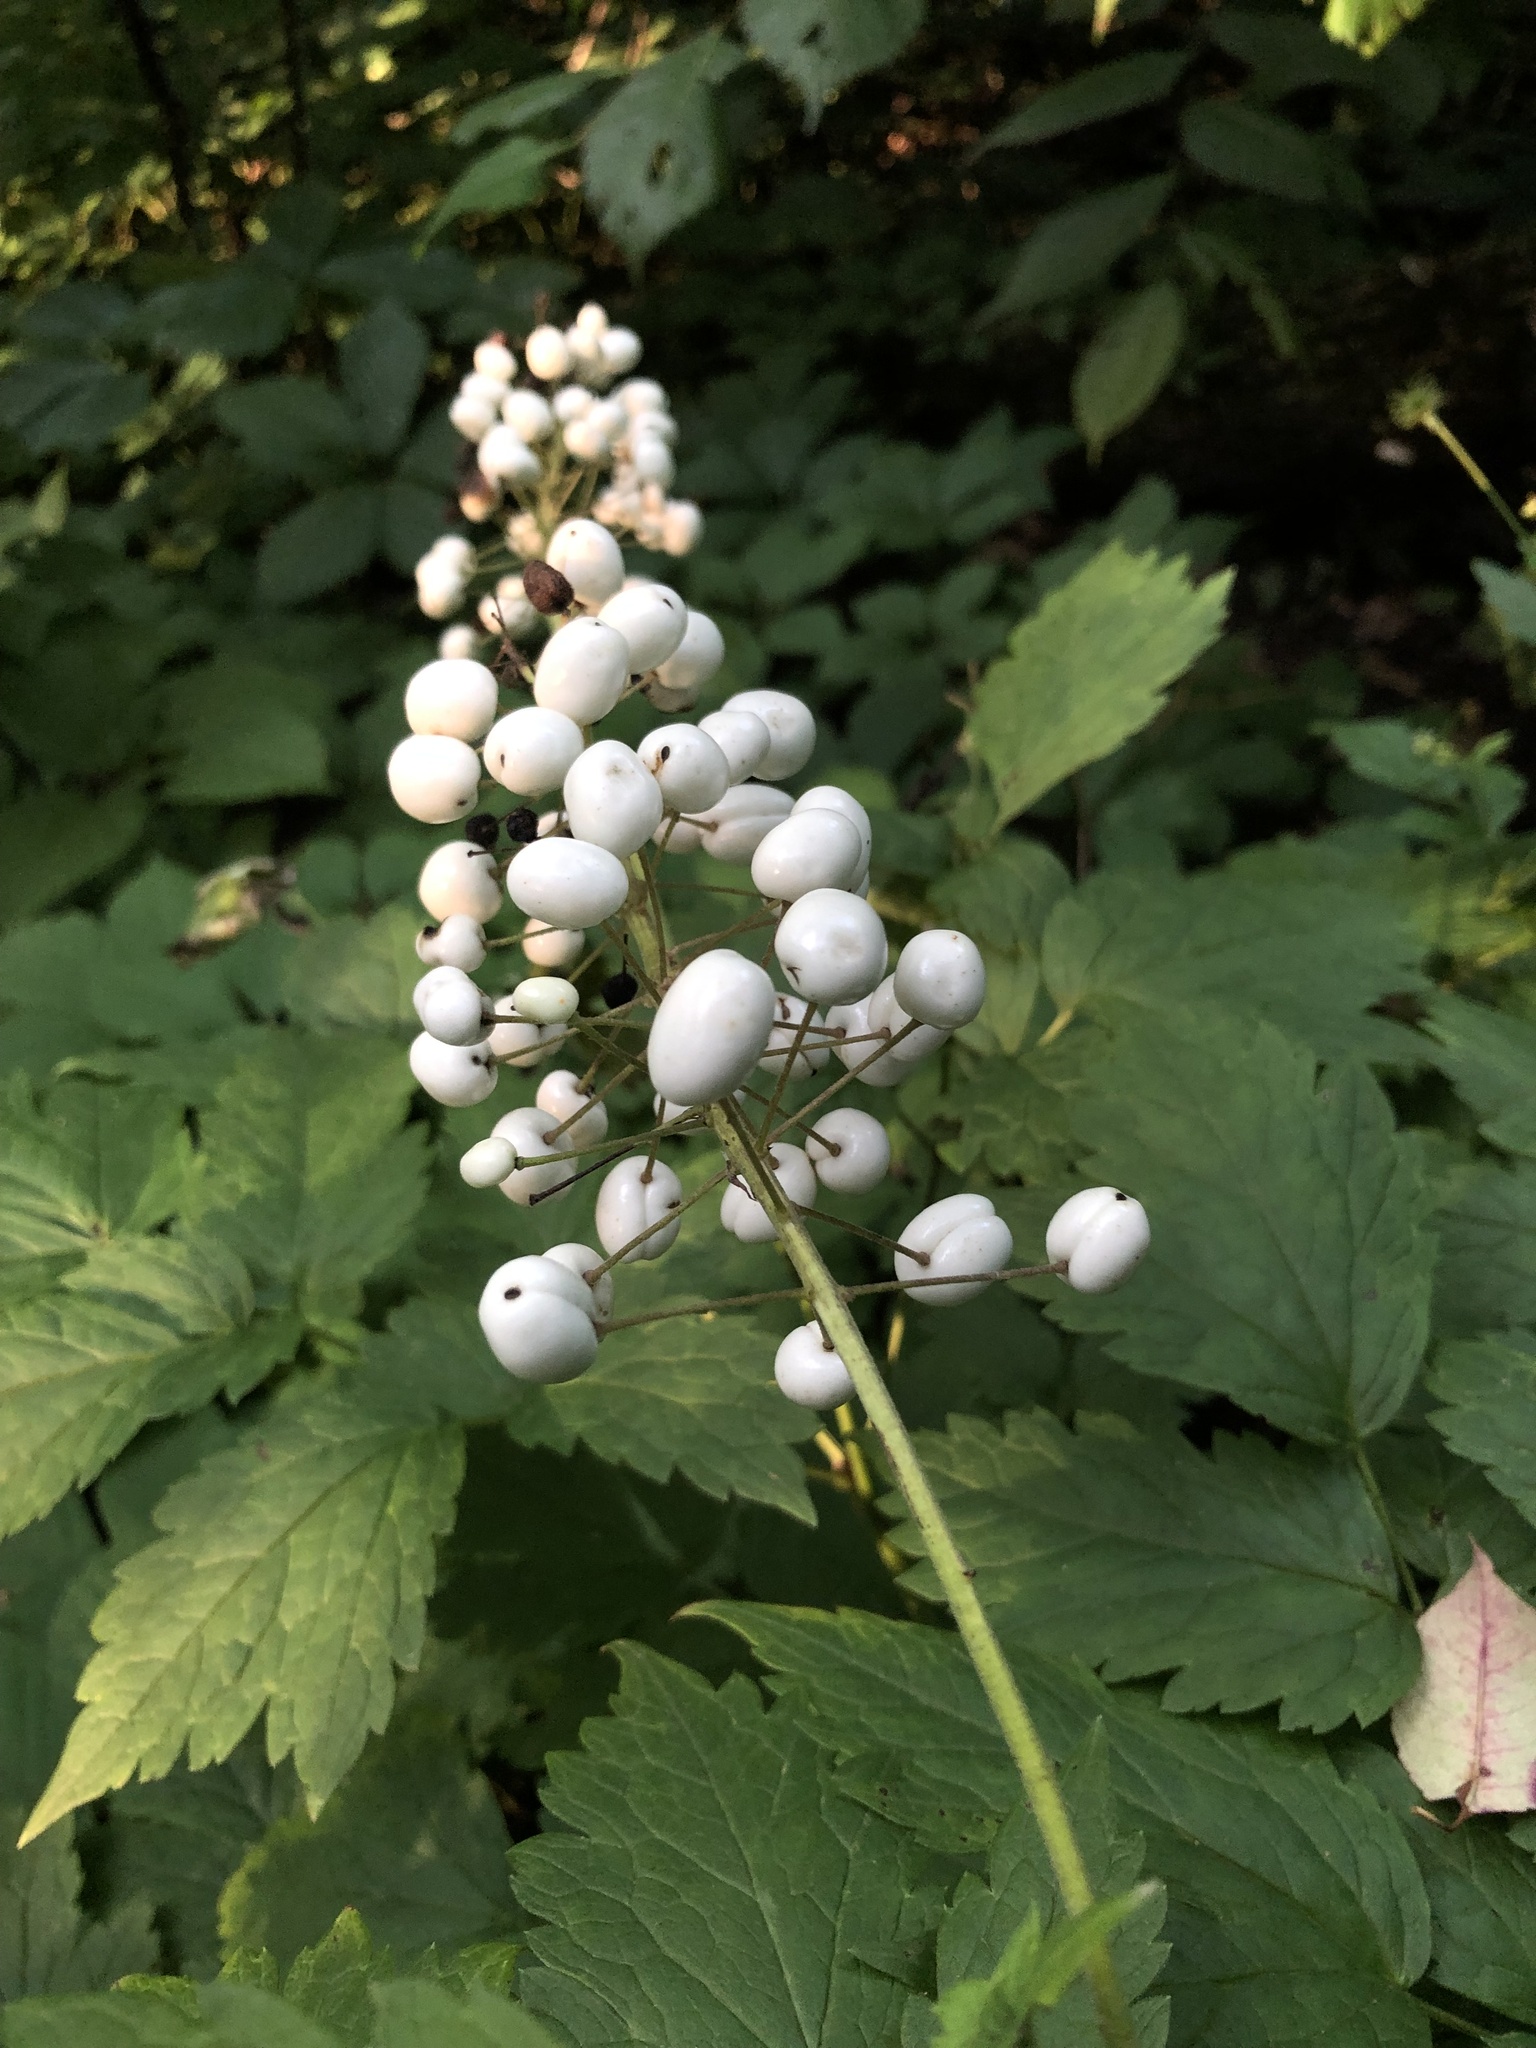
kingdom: Plantae
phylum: Tracheophyta
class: Magnoliopsida
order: Ranunculales
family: Ranunculaceae
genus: Actaea
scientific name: Actaea rubra
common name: Red baneberry
